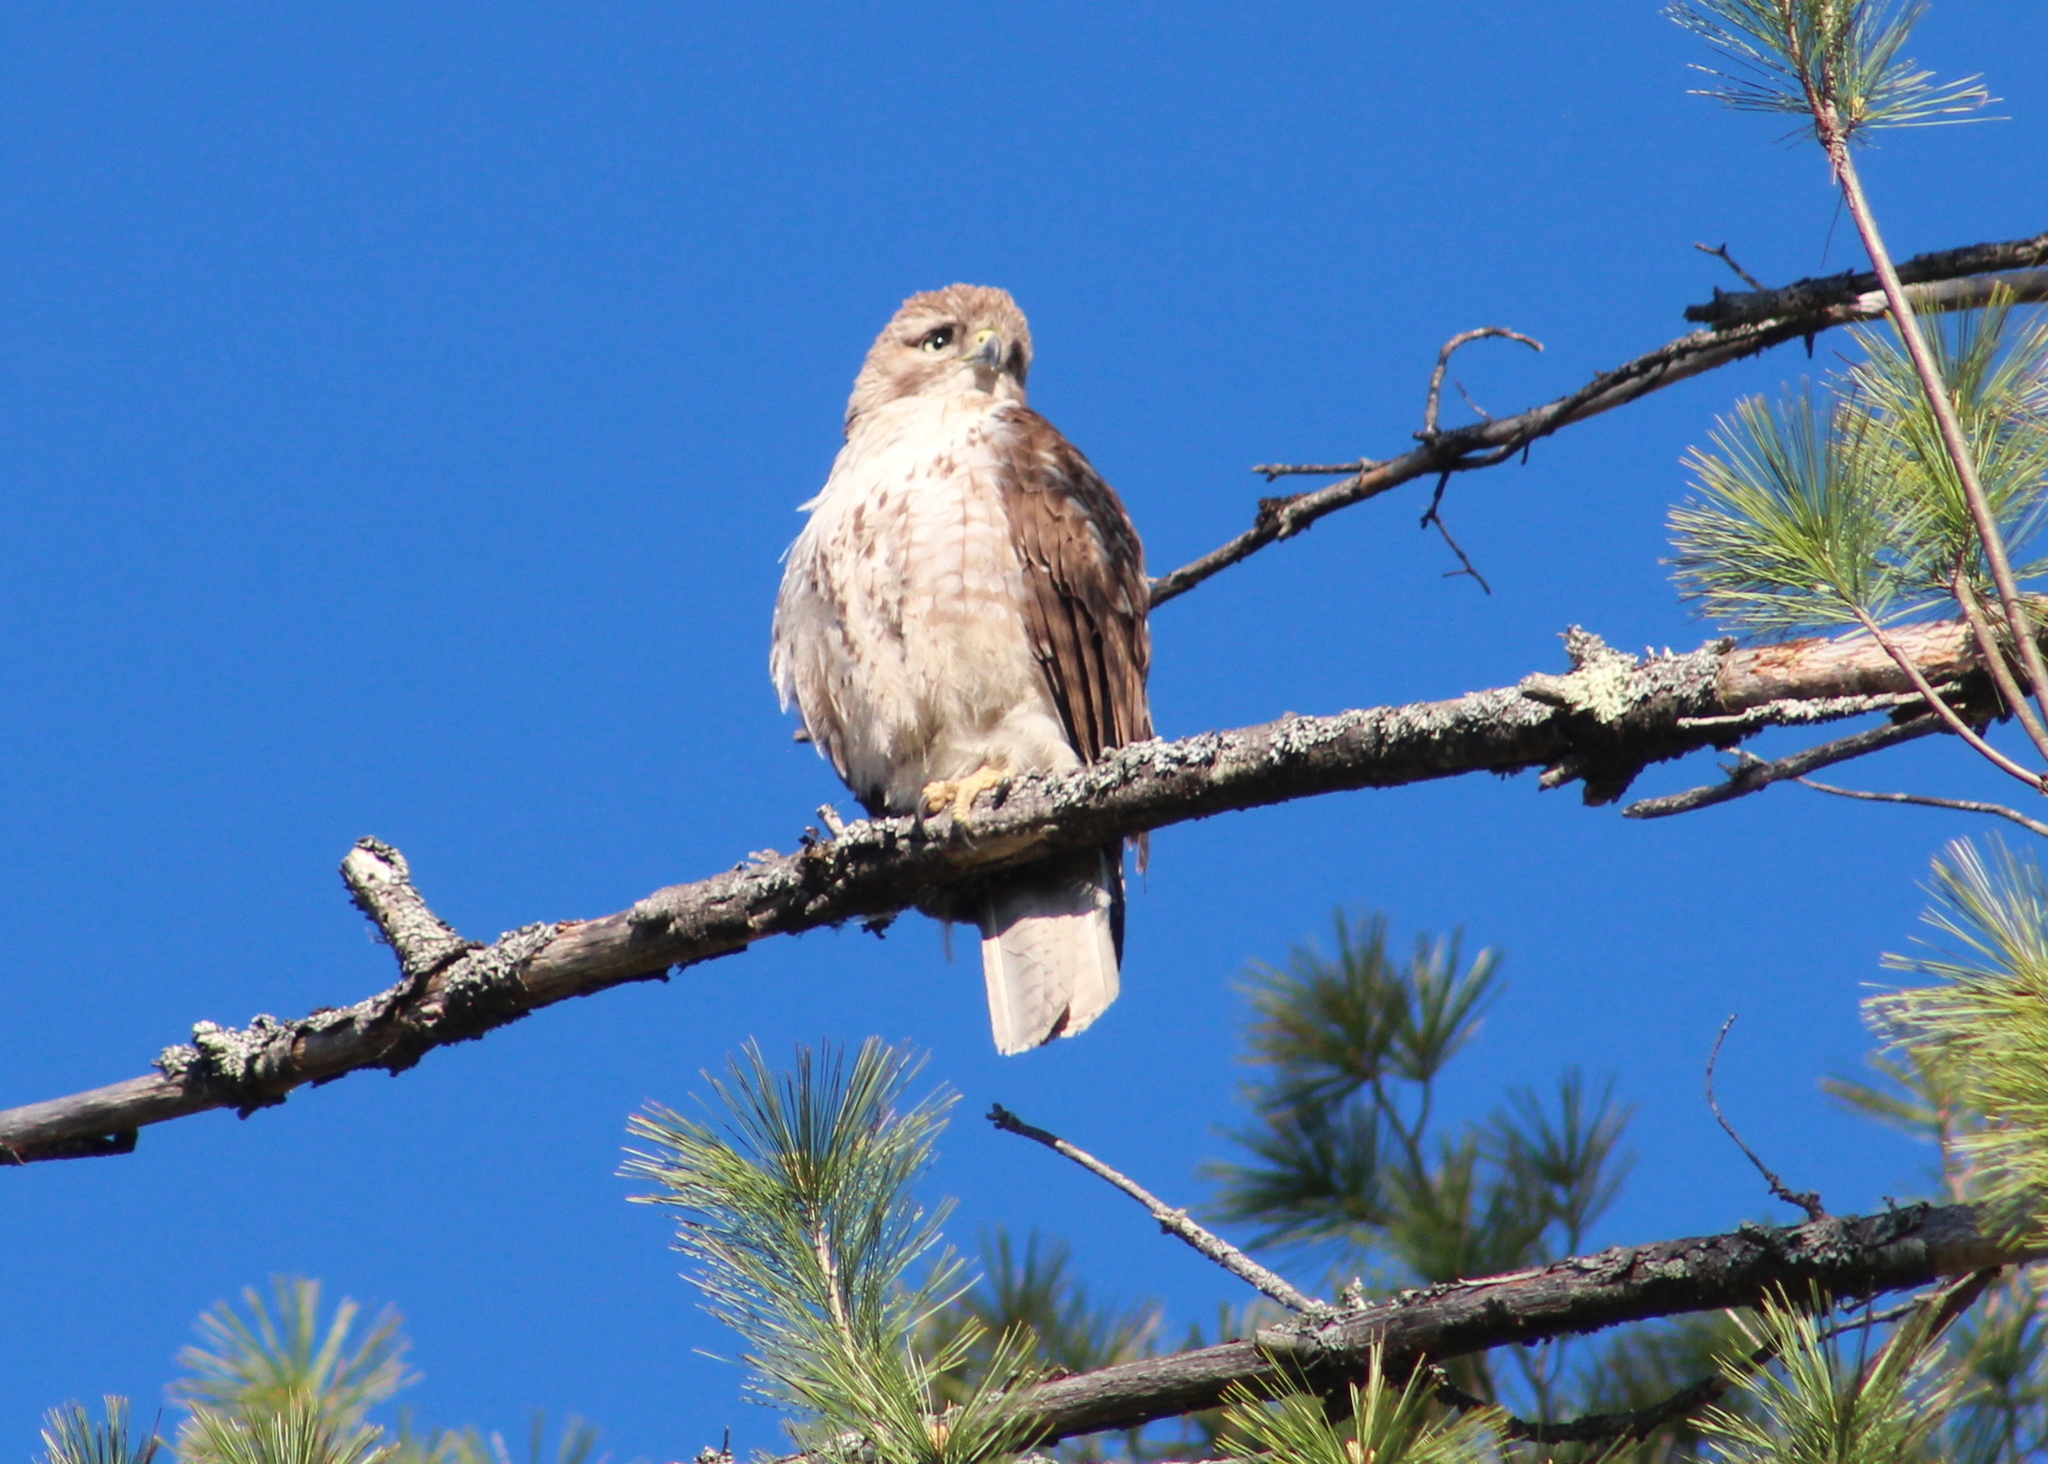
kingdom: Animalia
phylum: Chordata
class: Aves
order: Accipitriformes
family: Accipitridae
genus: Buteo
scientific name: Buteo jamaicensis
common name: Red-tailed hawk
